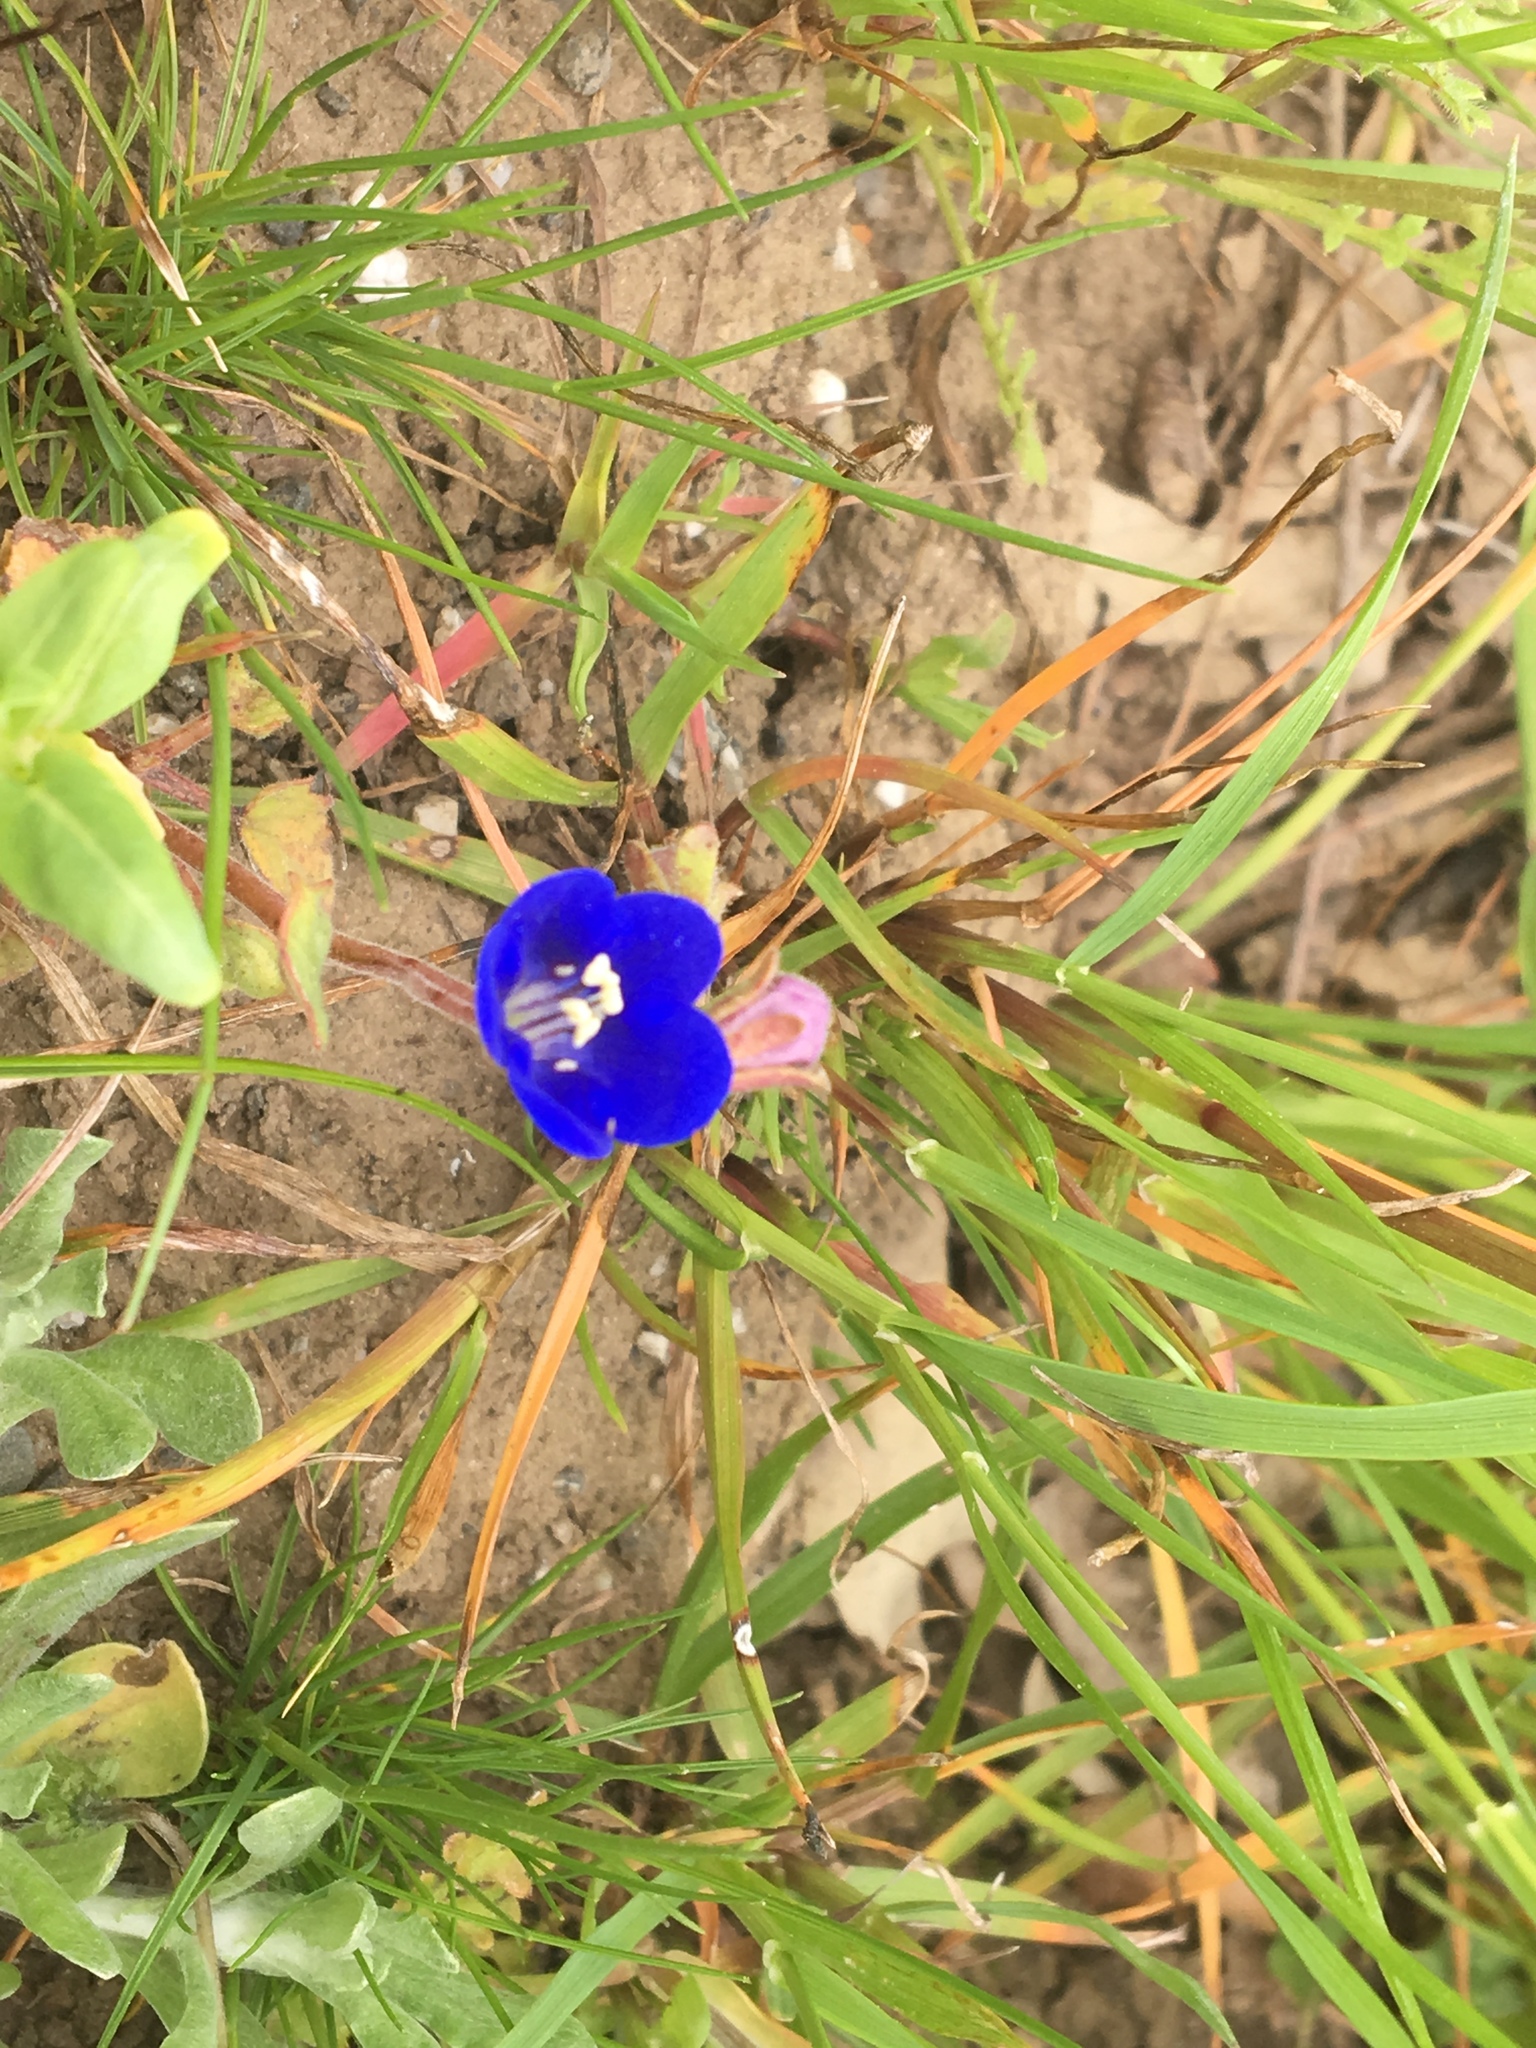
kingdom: Plantae
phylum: Tracheophyta
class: Magnoliopsida
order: Boraginales
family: Hydrophyllaceae
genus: Phacelia
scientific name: Phacelia campanularia
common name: California bluebell
